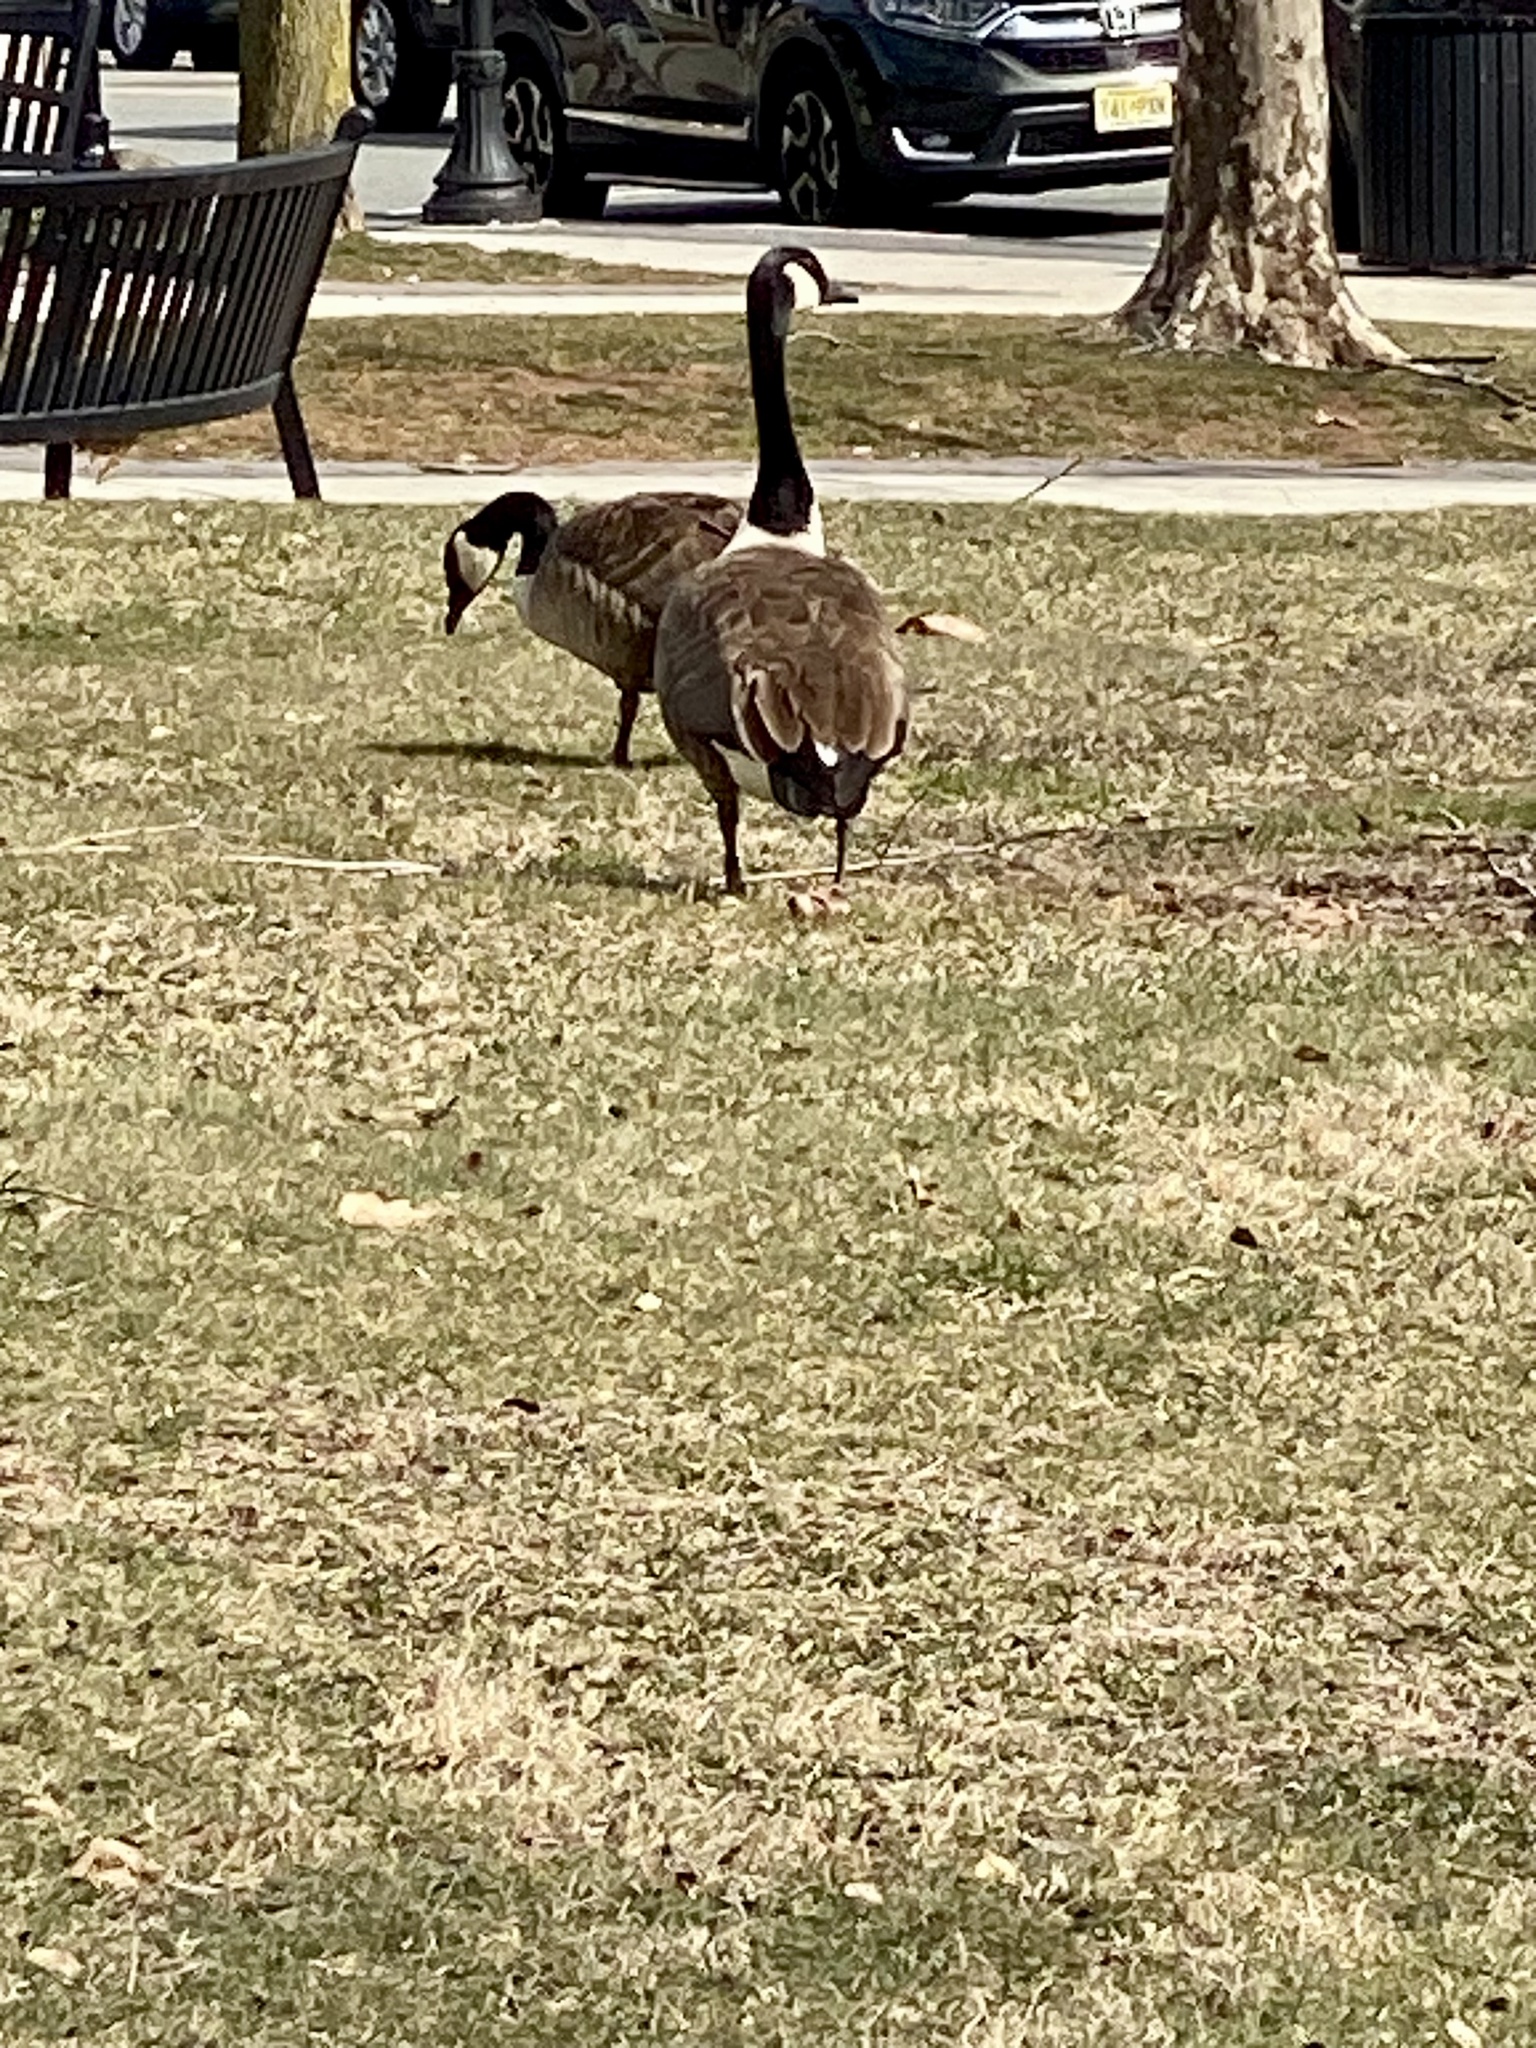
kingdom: Animalia
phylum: Chordata
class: Aves
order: Anseriformes
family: Anatidae
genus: Branta
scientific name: Branta canadensis
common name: Canada goose
